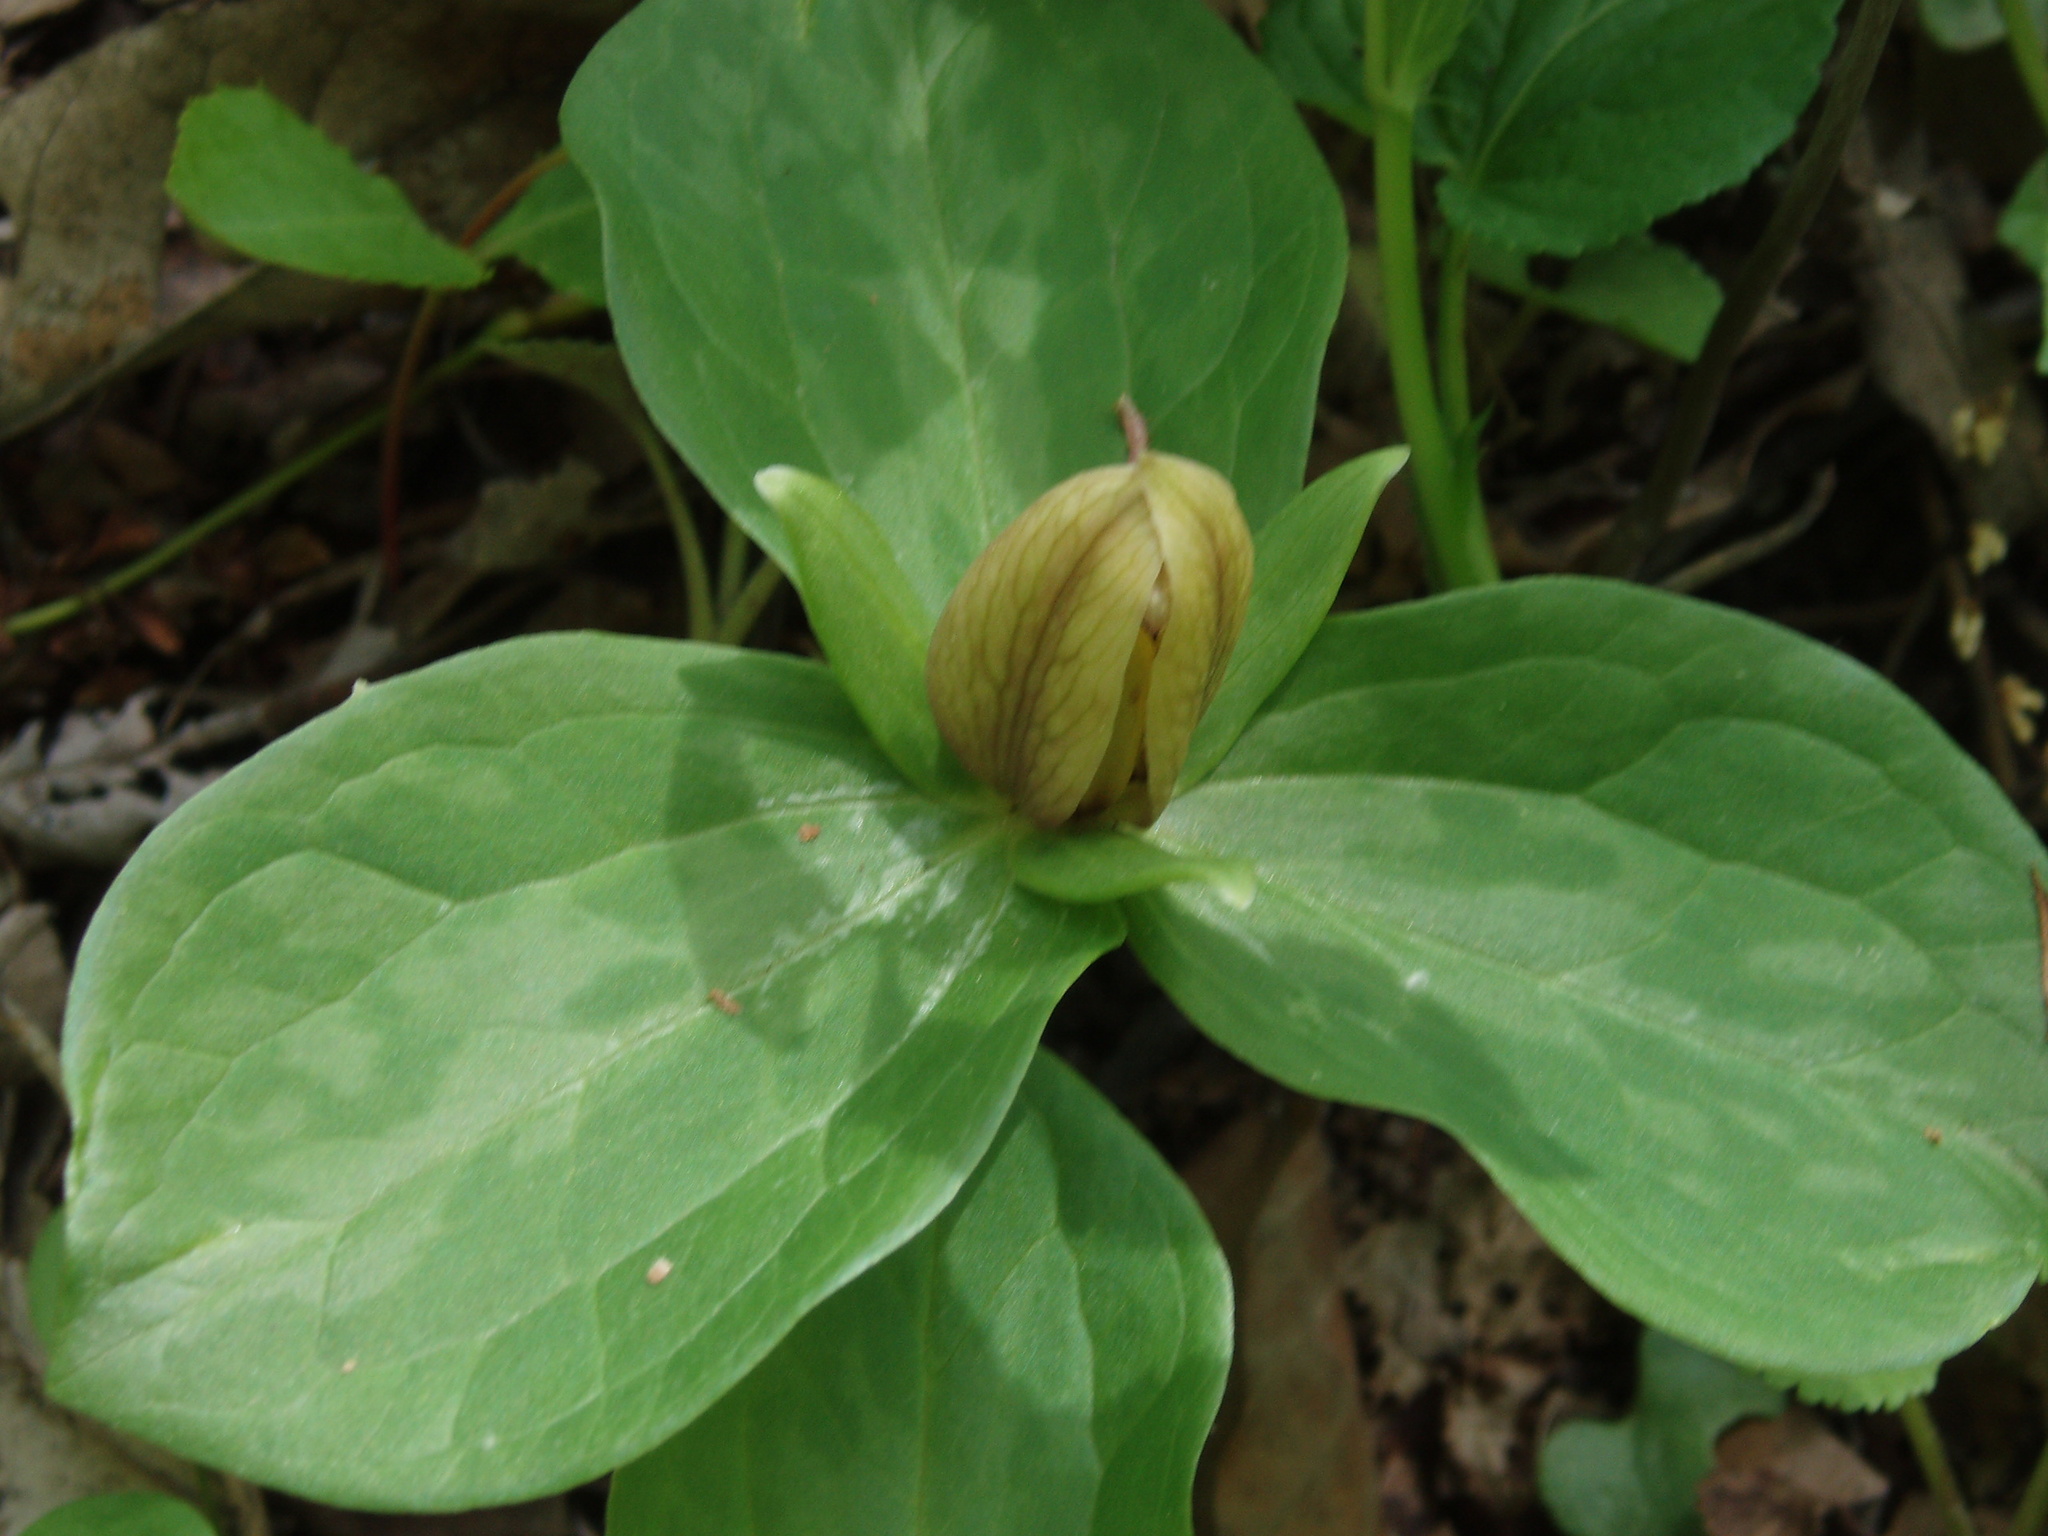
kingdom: Plantae
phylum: Tracheophyta
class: Liliopsida
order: Liliales
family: Melanthiaceae
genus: Trillium
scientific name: Trillium sessile
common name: Sessile trillium
